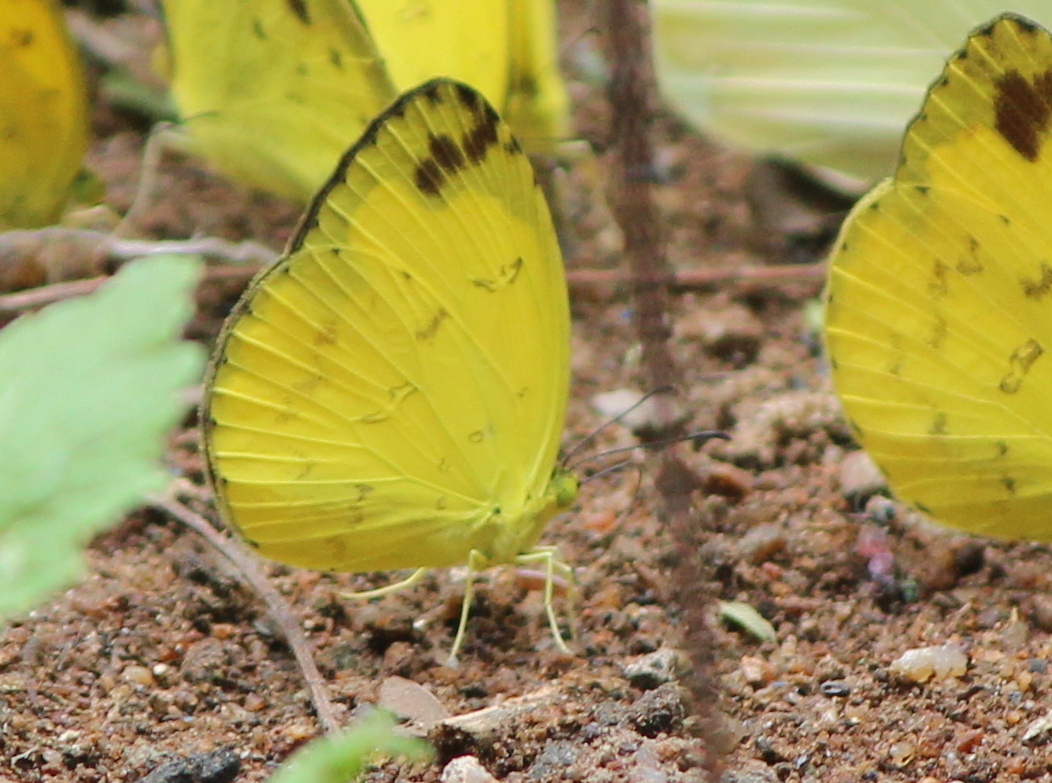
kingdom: Animalia
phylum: Arthropoda
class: Insecta
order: Lepidoptera
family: Pieridae
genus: Eurema
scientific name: Eurema andersoni
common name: One-spot yellow grass
